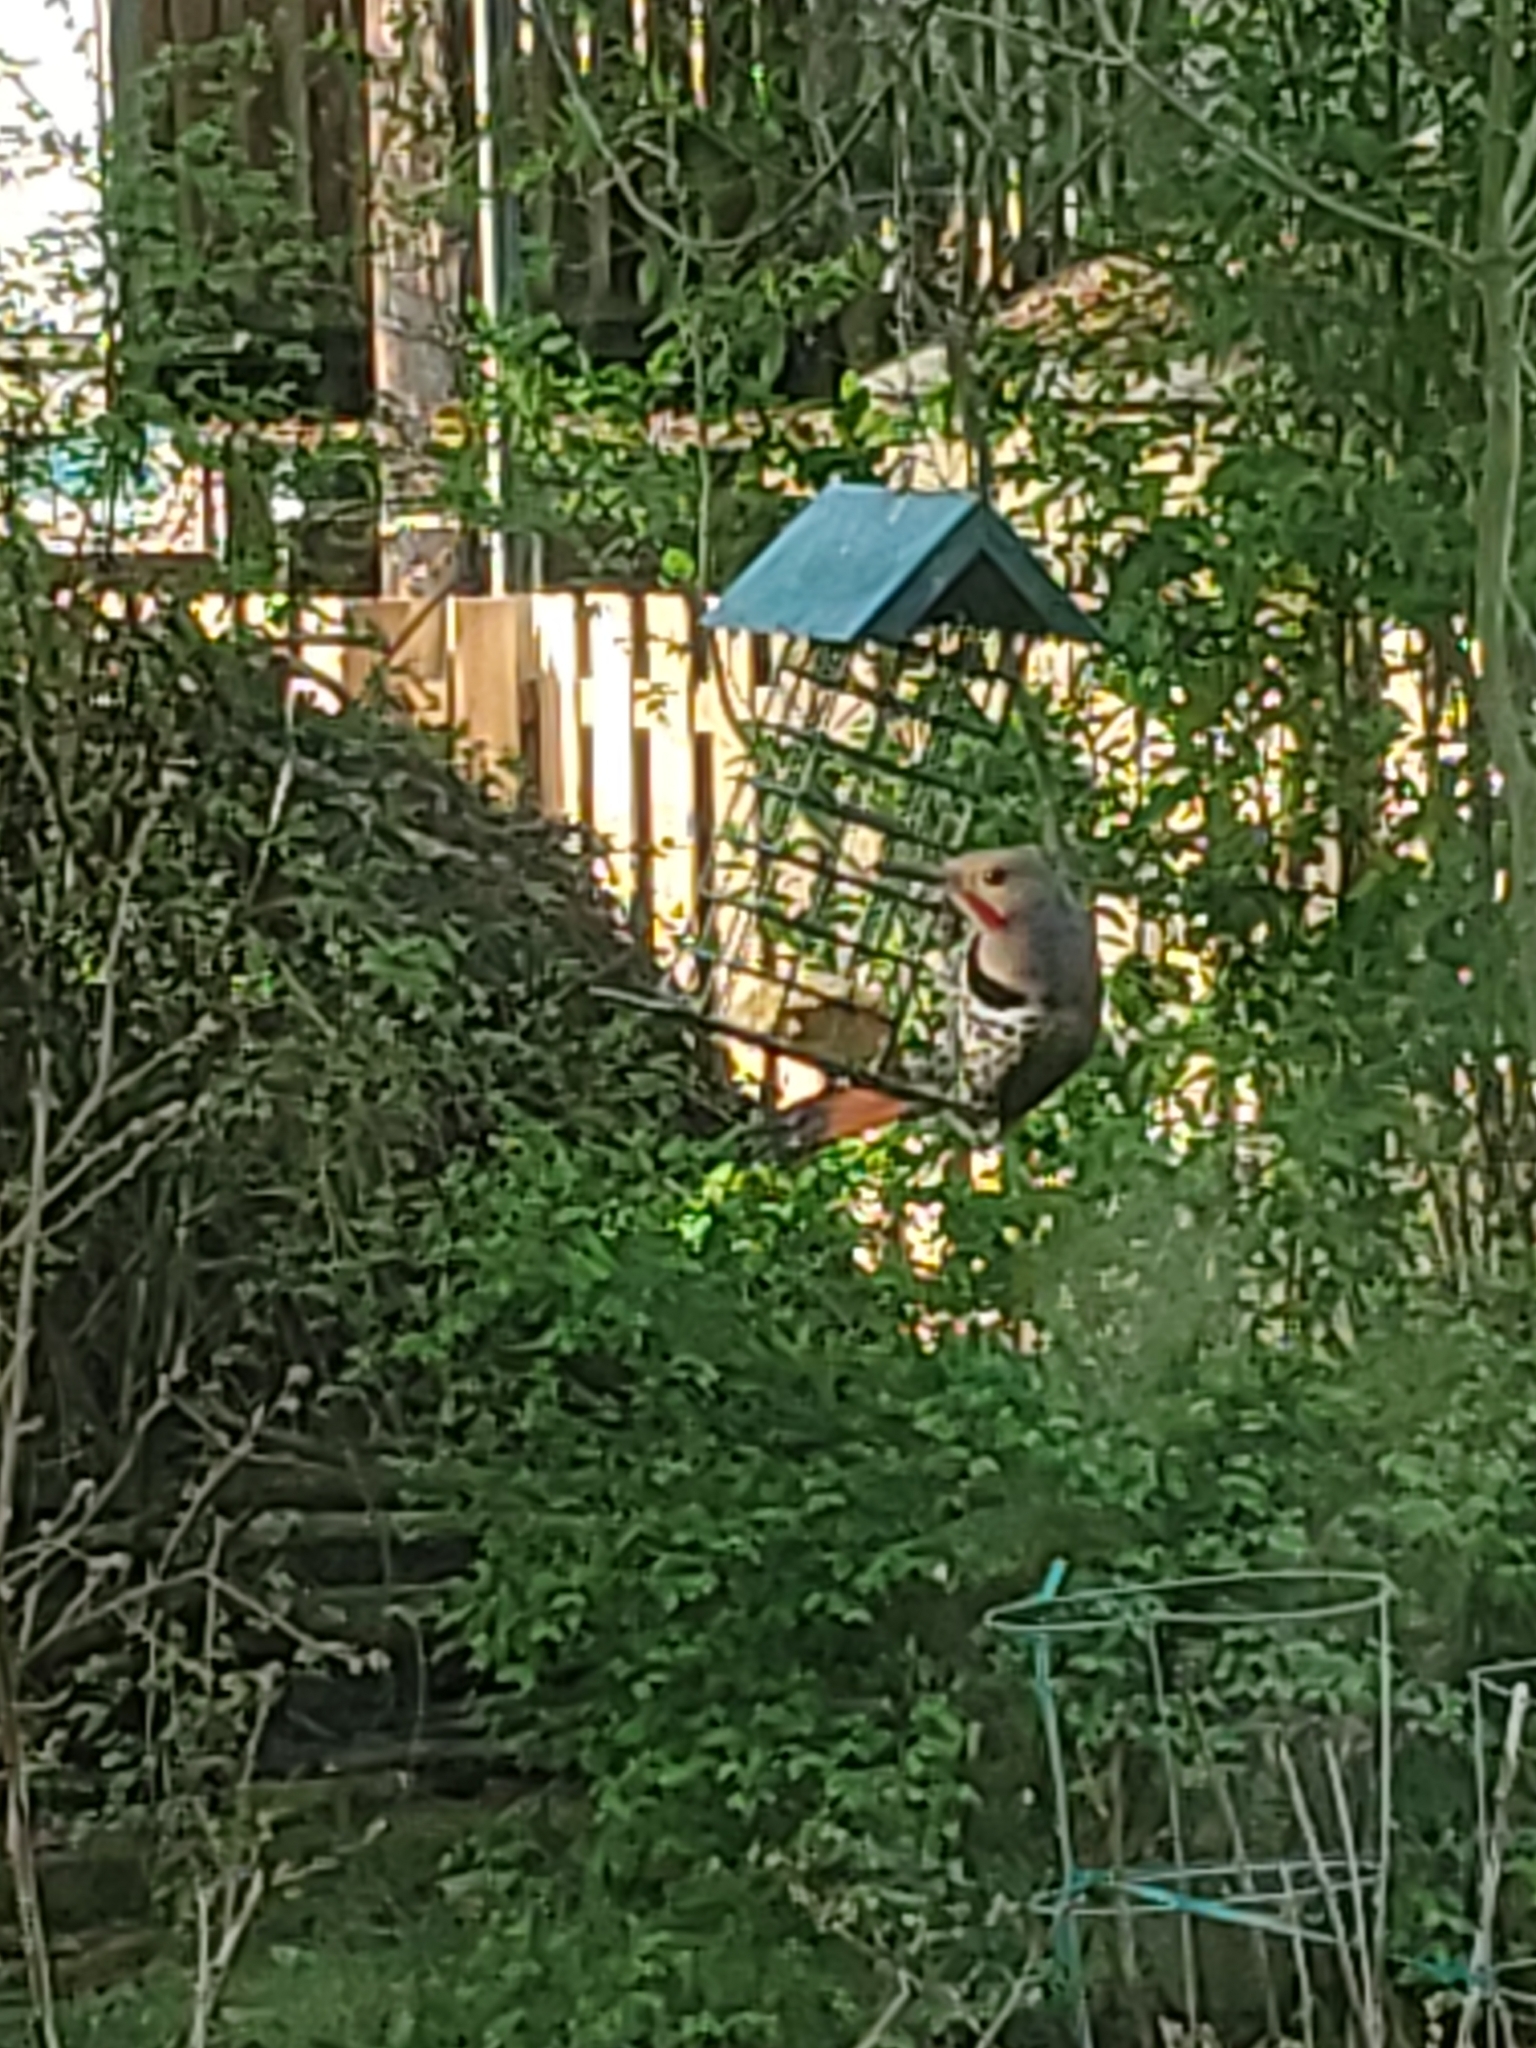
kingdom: Animalia
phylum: Chordata
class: Aves
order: Piciformes
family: Picidae
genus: Colaptes
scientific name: Colaptes auratus
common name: Northern flicker
